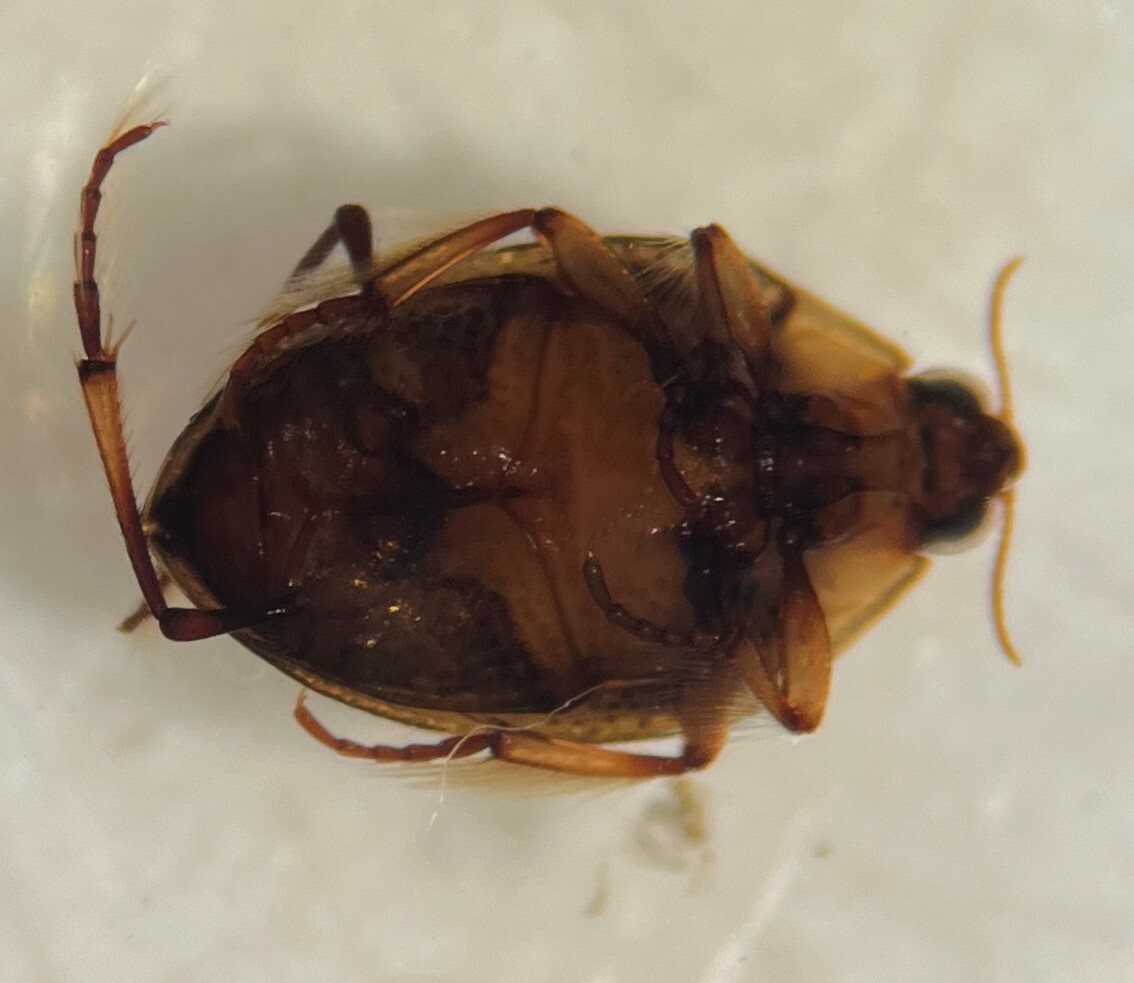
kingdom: Animalia
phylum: Arthropoda
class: Insecta
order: Coleoptera
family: Haliplidae
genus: Peltodytes
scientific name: Peltodytes simplex
